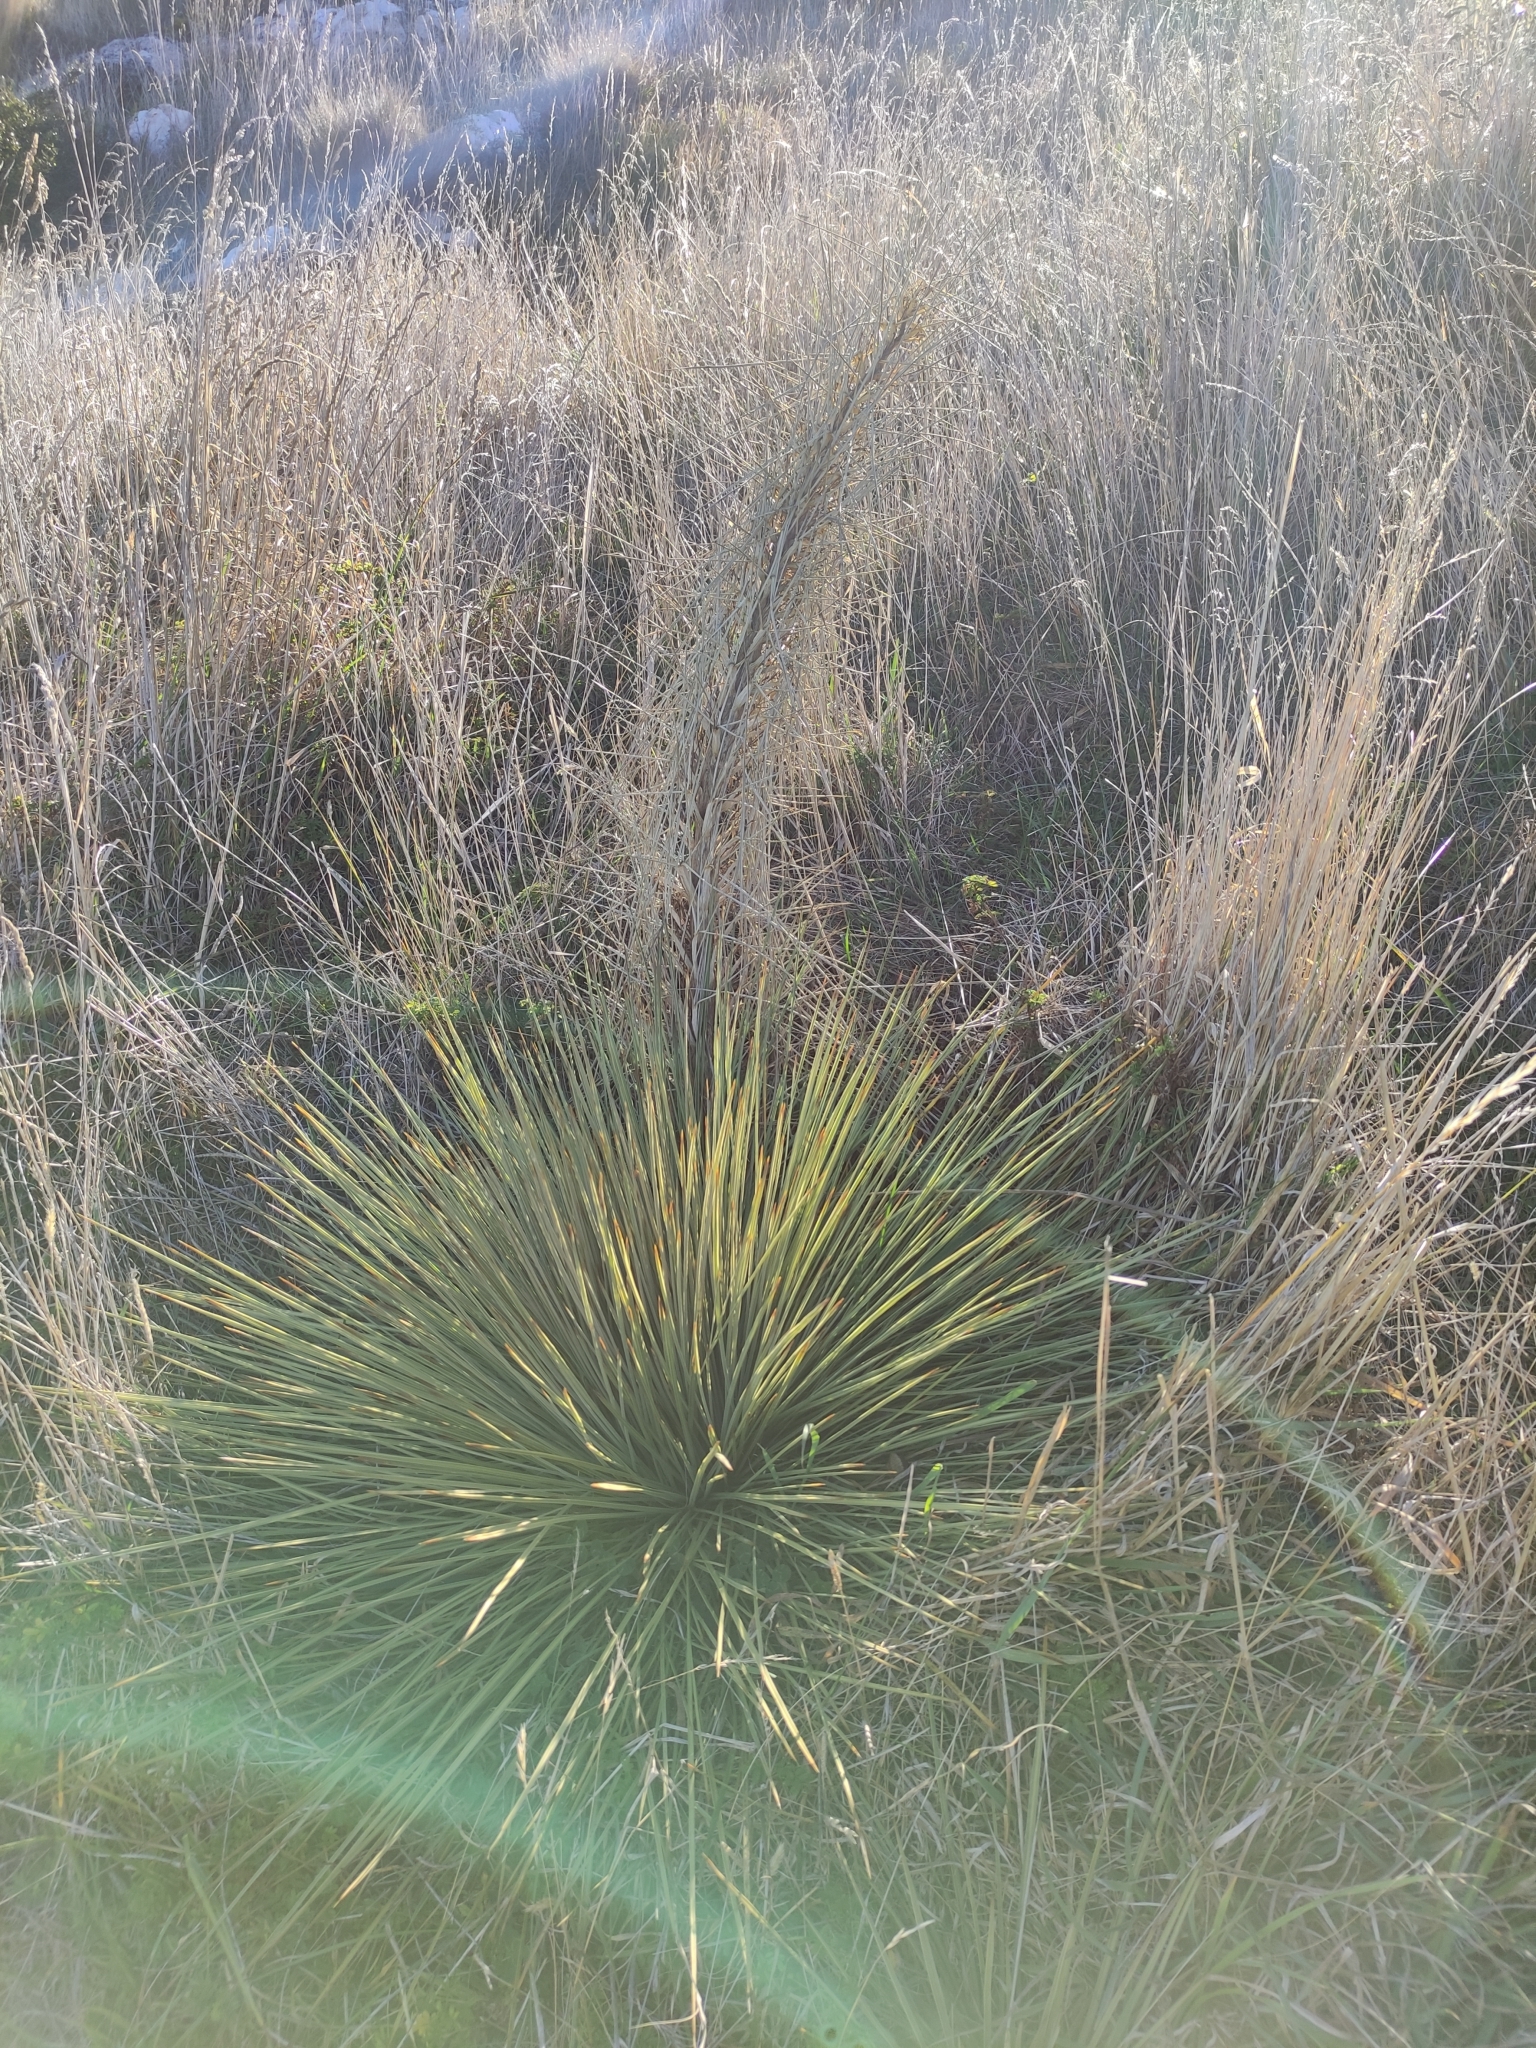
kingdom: Plantae
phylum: Tracheophyta
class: Magnoliopsida
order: Apiales
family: Apiaceae
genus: Aciphylla
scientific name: Aciphylla subflabellata
